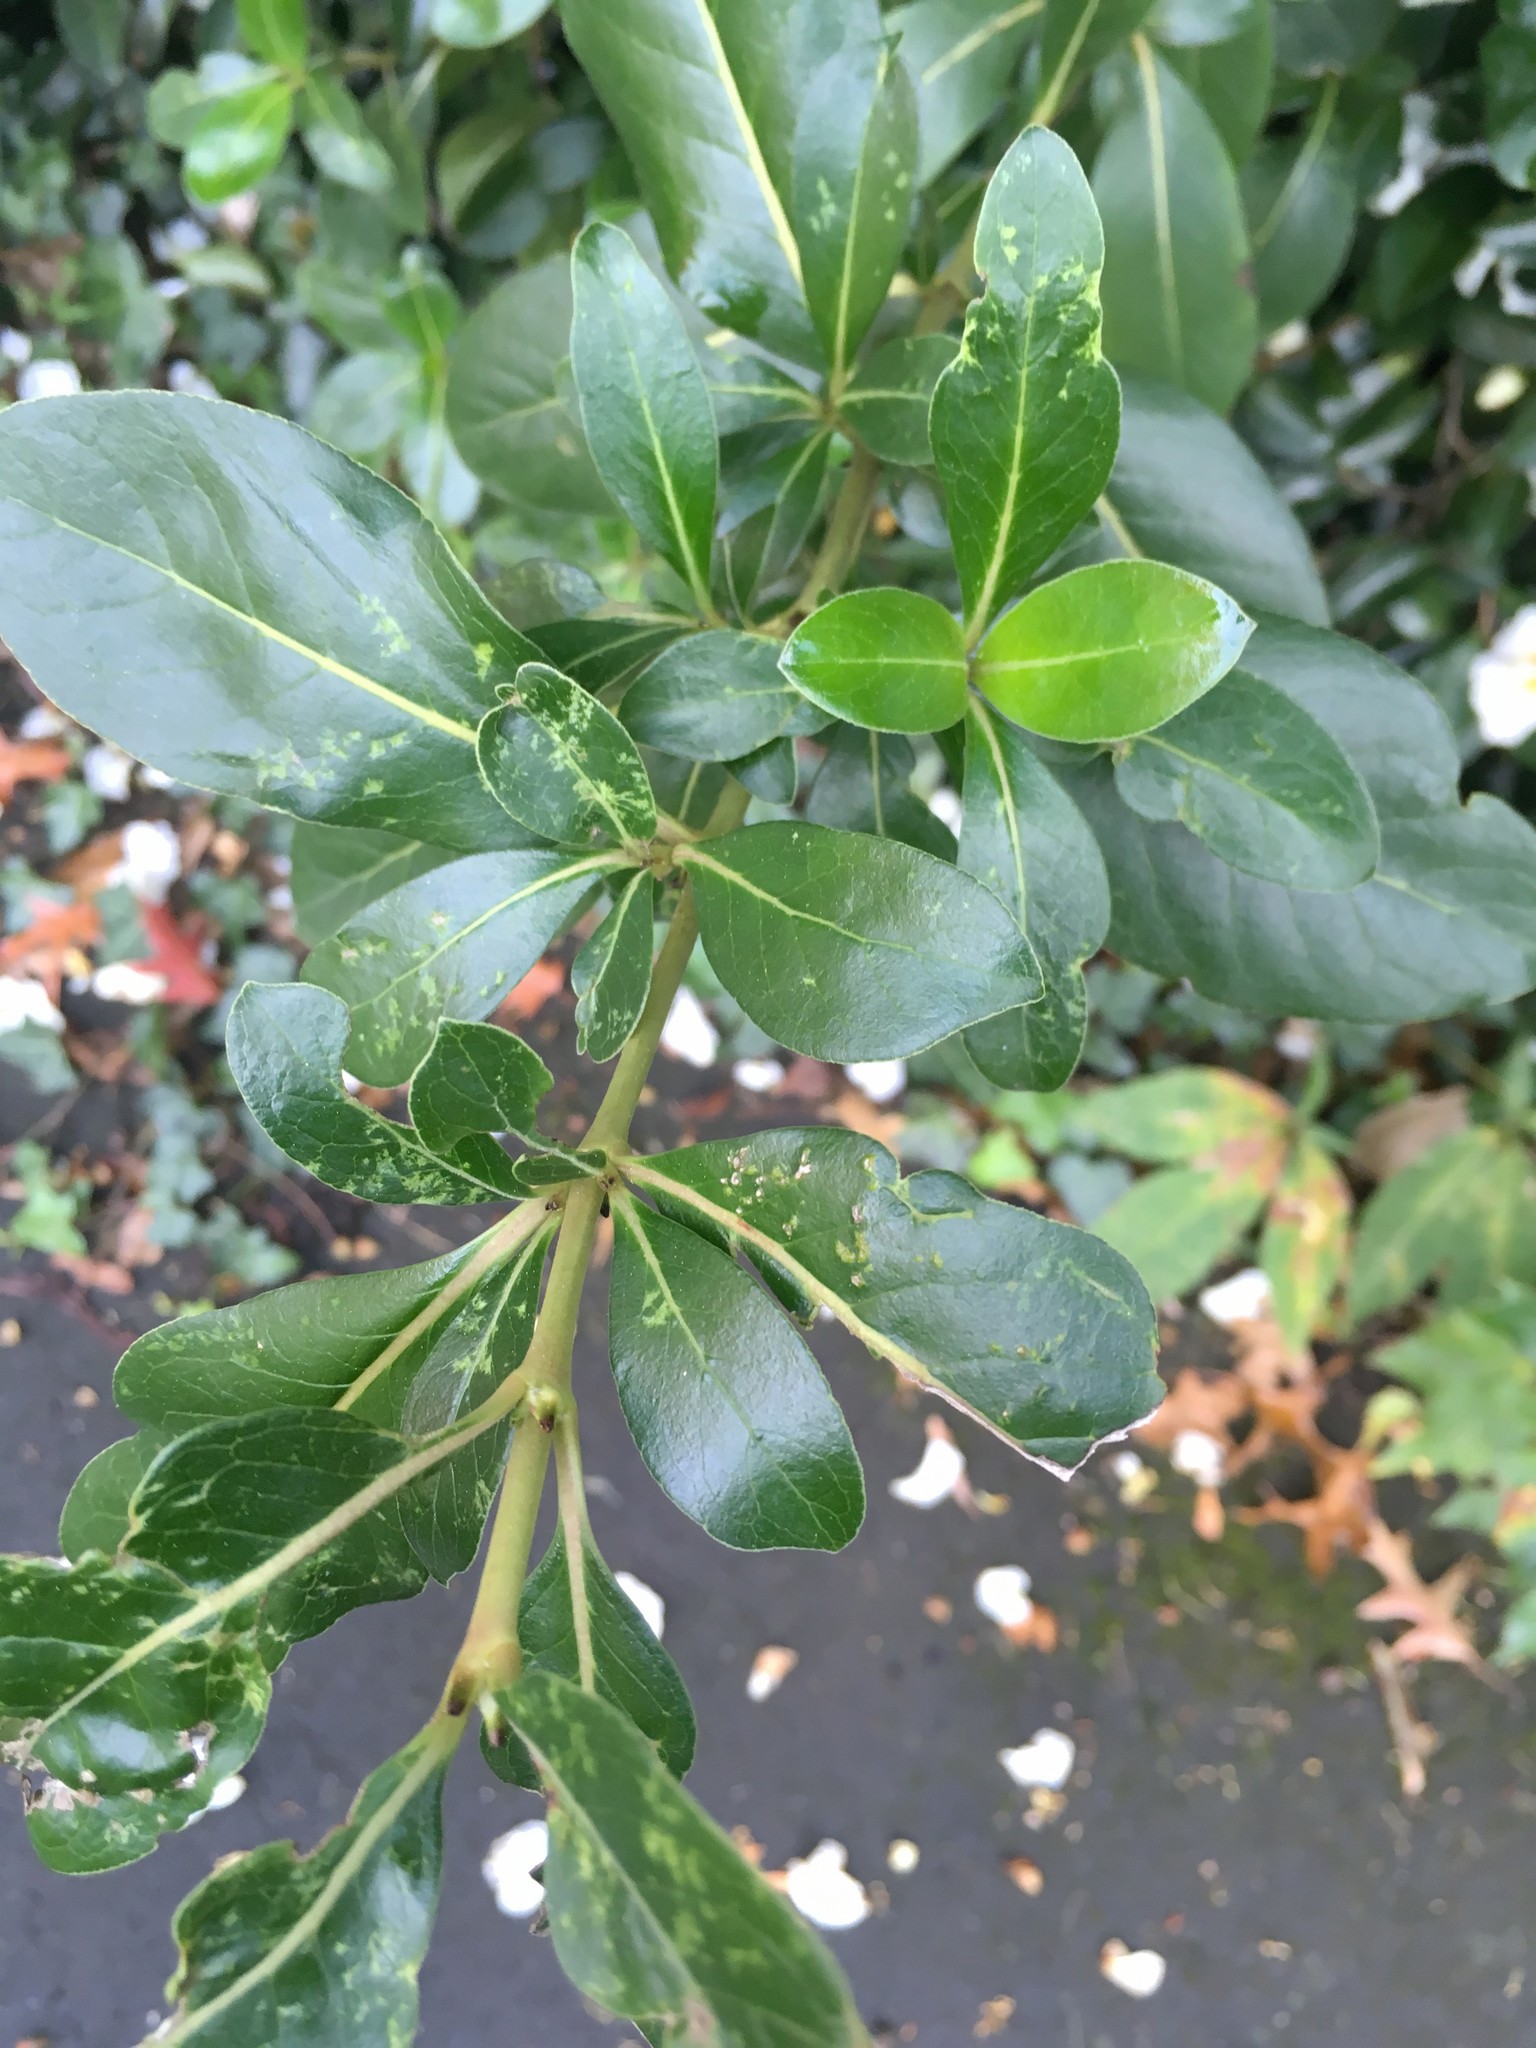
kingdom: Plantae
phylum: Tracheophyta
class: Magnoliopsida
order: Gentianales
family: Rubiaceae
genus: Coprosma
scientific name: Coprosma robusta
